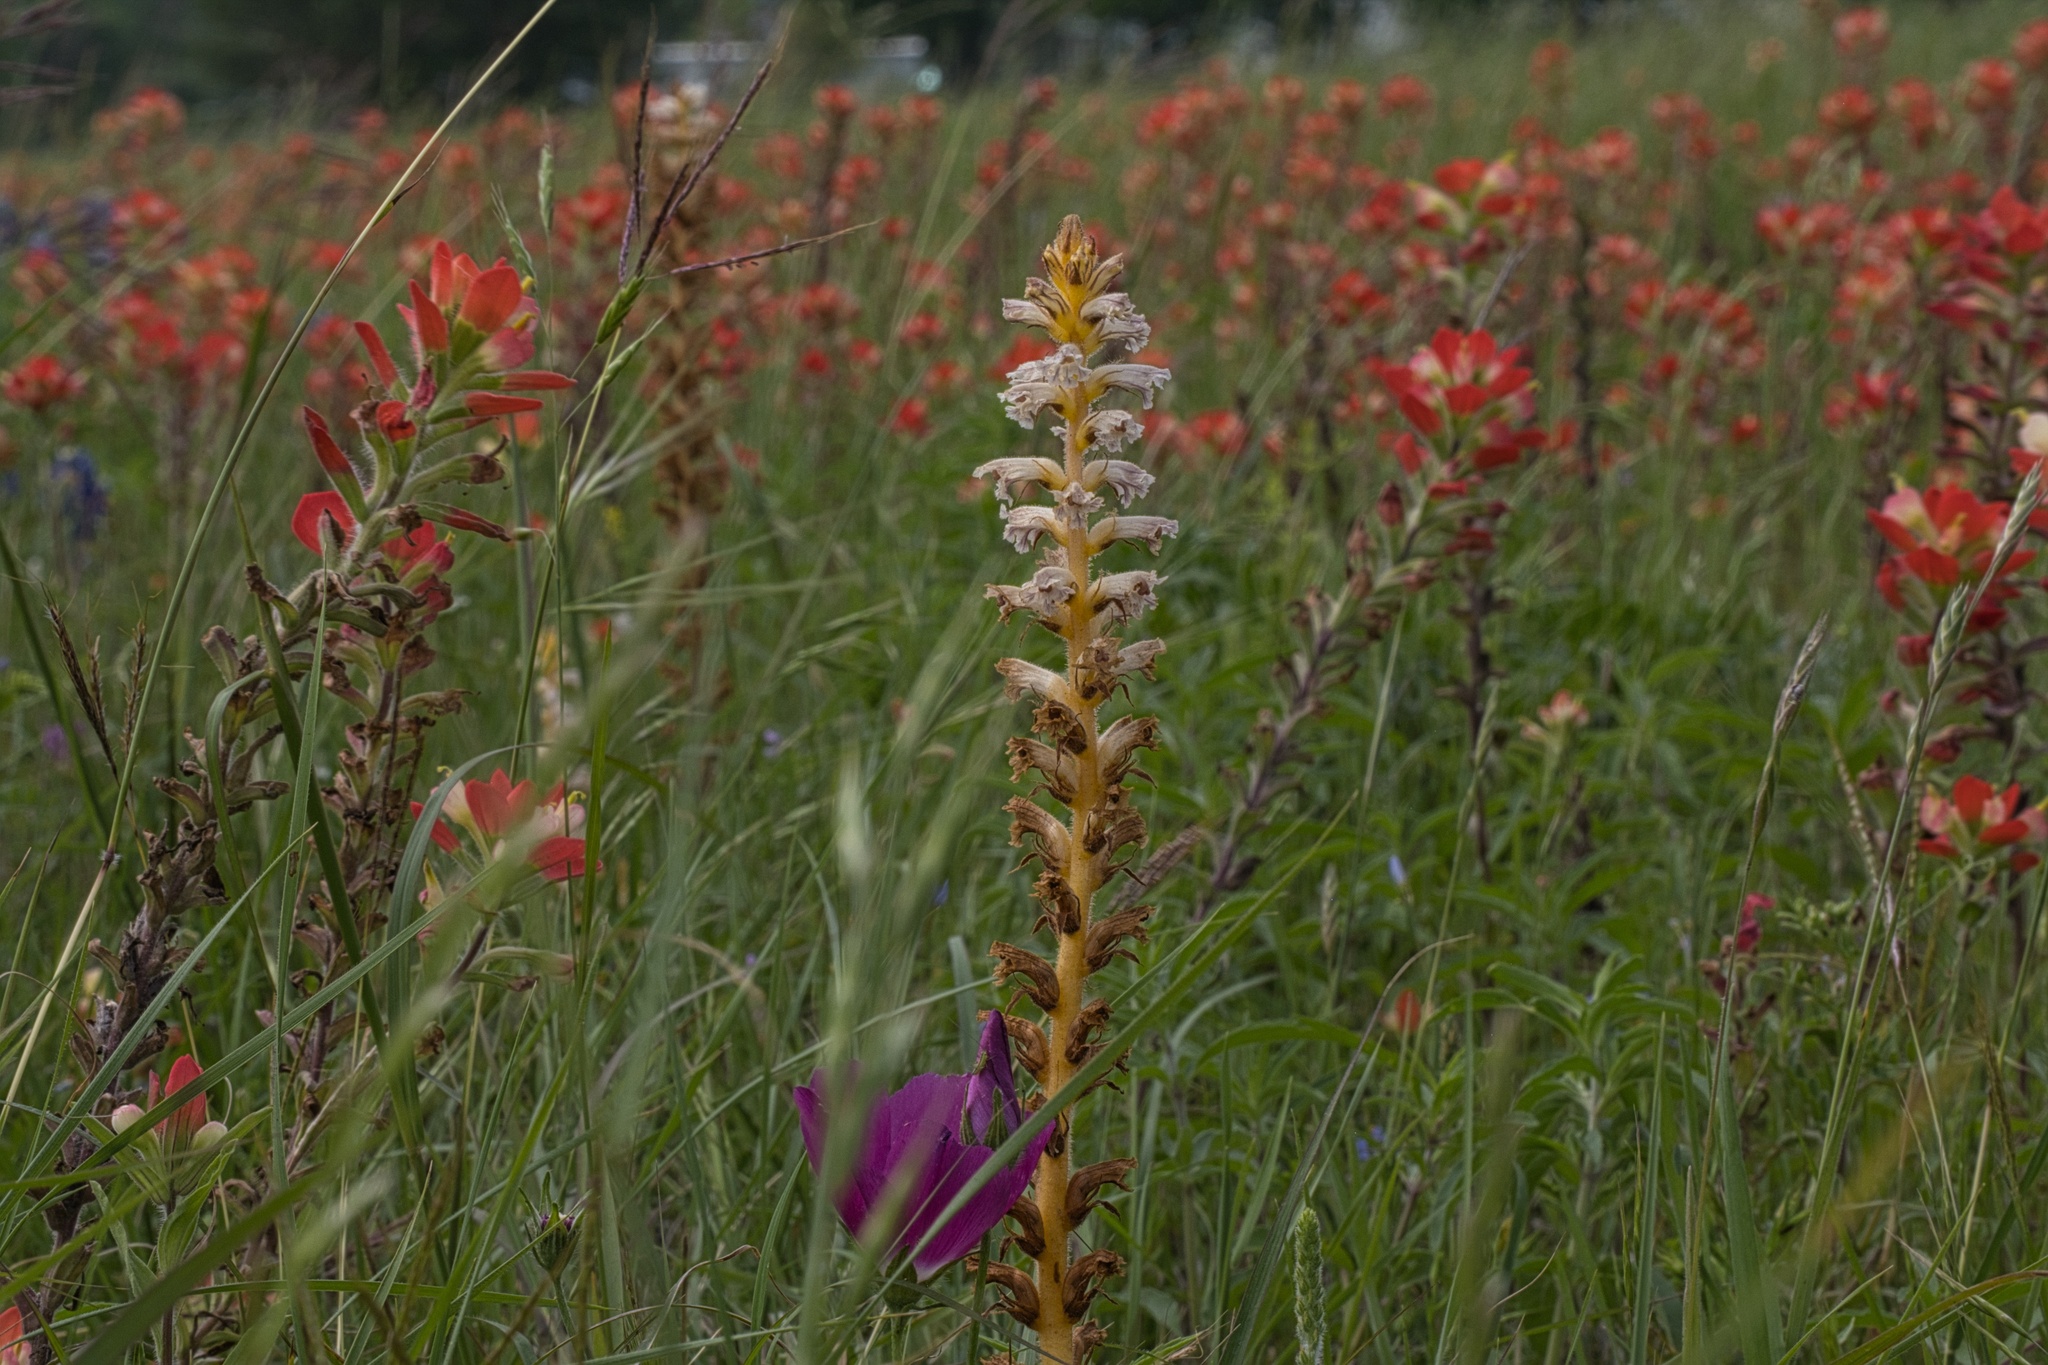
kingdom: Plantae
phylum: Tracheophyta
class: Magnoliopsida
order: Lamiales
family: Orobanchaceae
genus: Orobanche
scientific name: Orobanche minor
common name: Common broomrape
